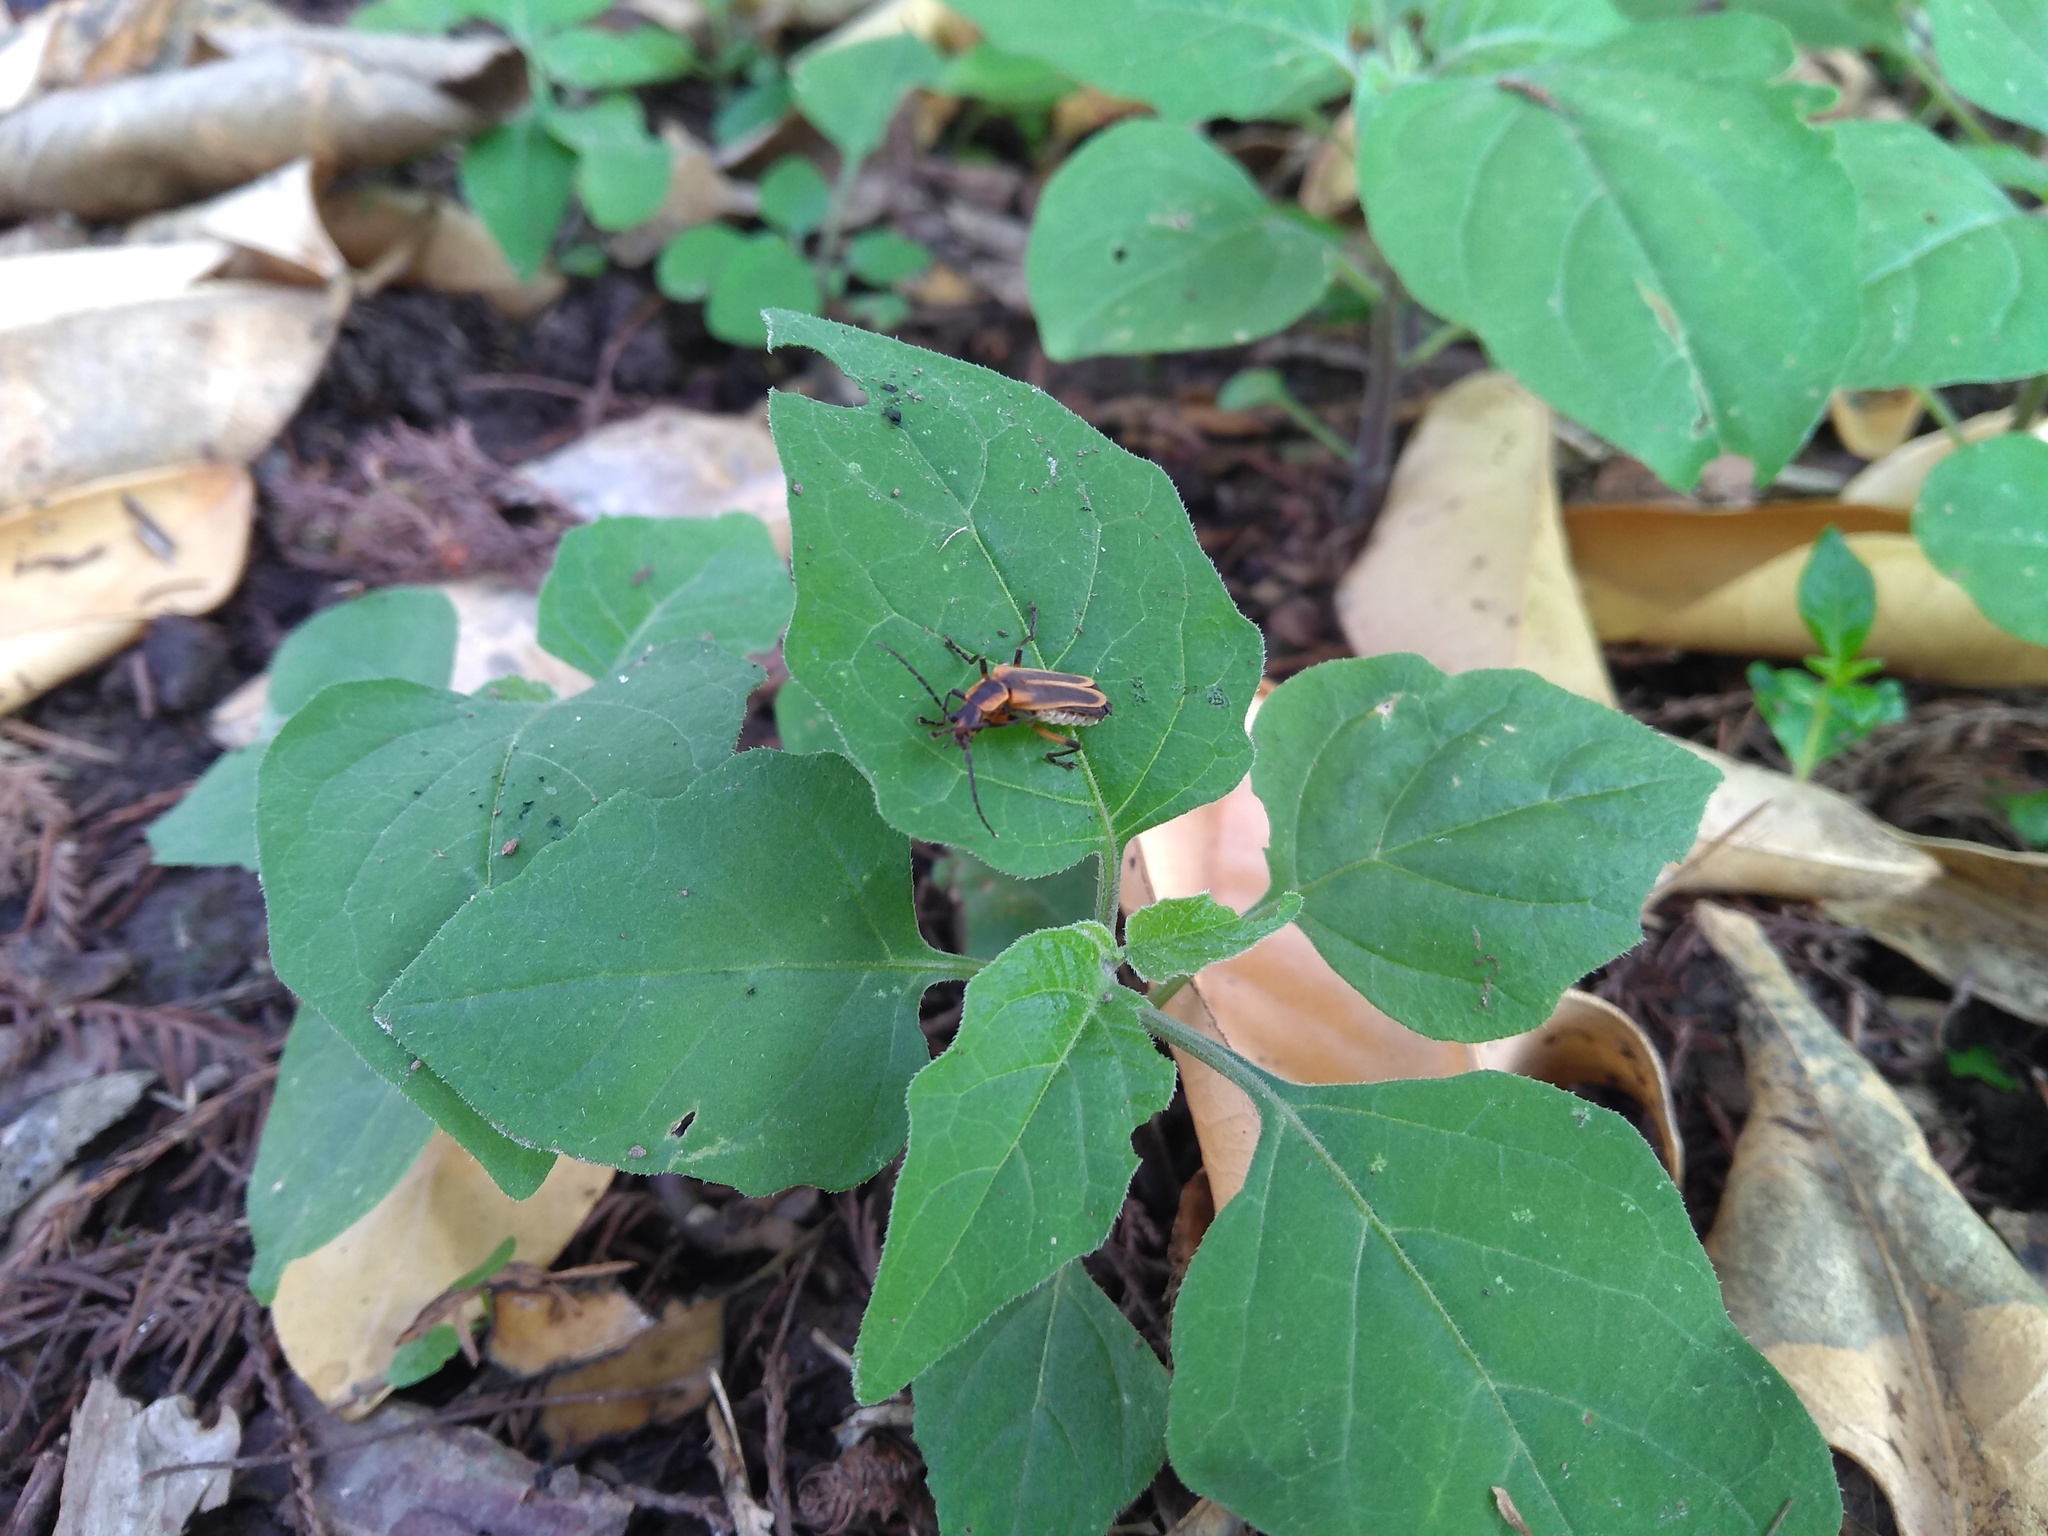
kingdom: Animalia
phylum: Arthropoda
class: Insecta
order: Coleoptera
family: Cantharidae
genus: Chauliognathus
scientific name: Chauliognathus marginatus
